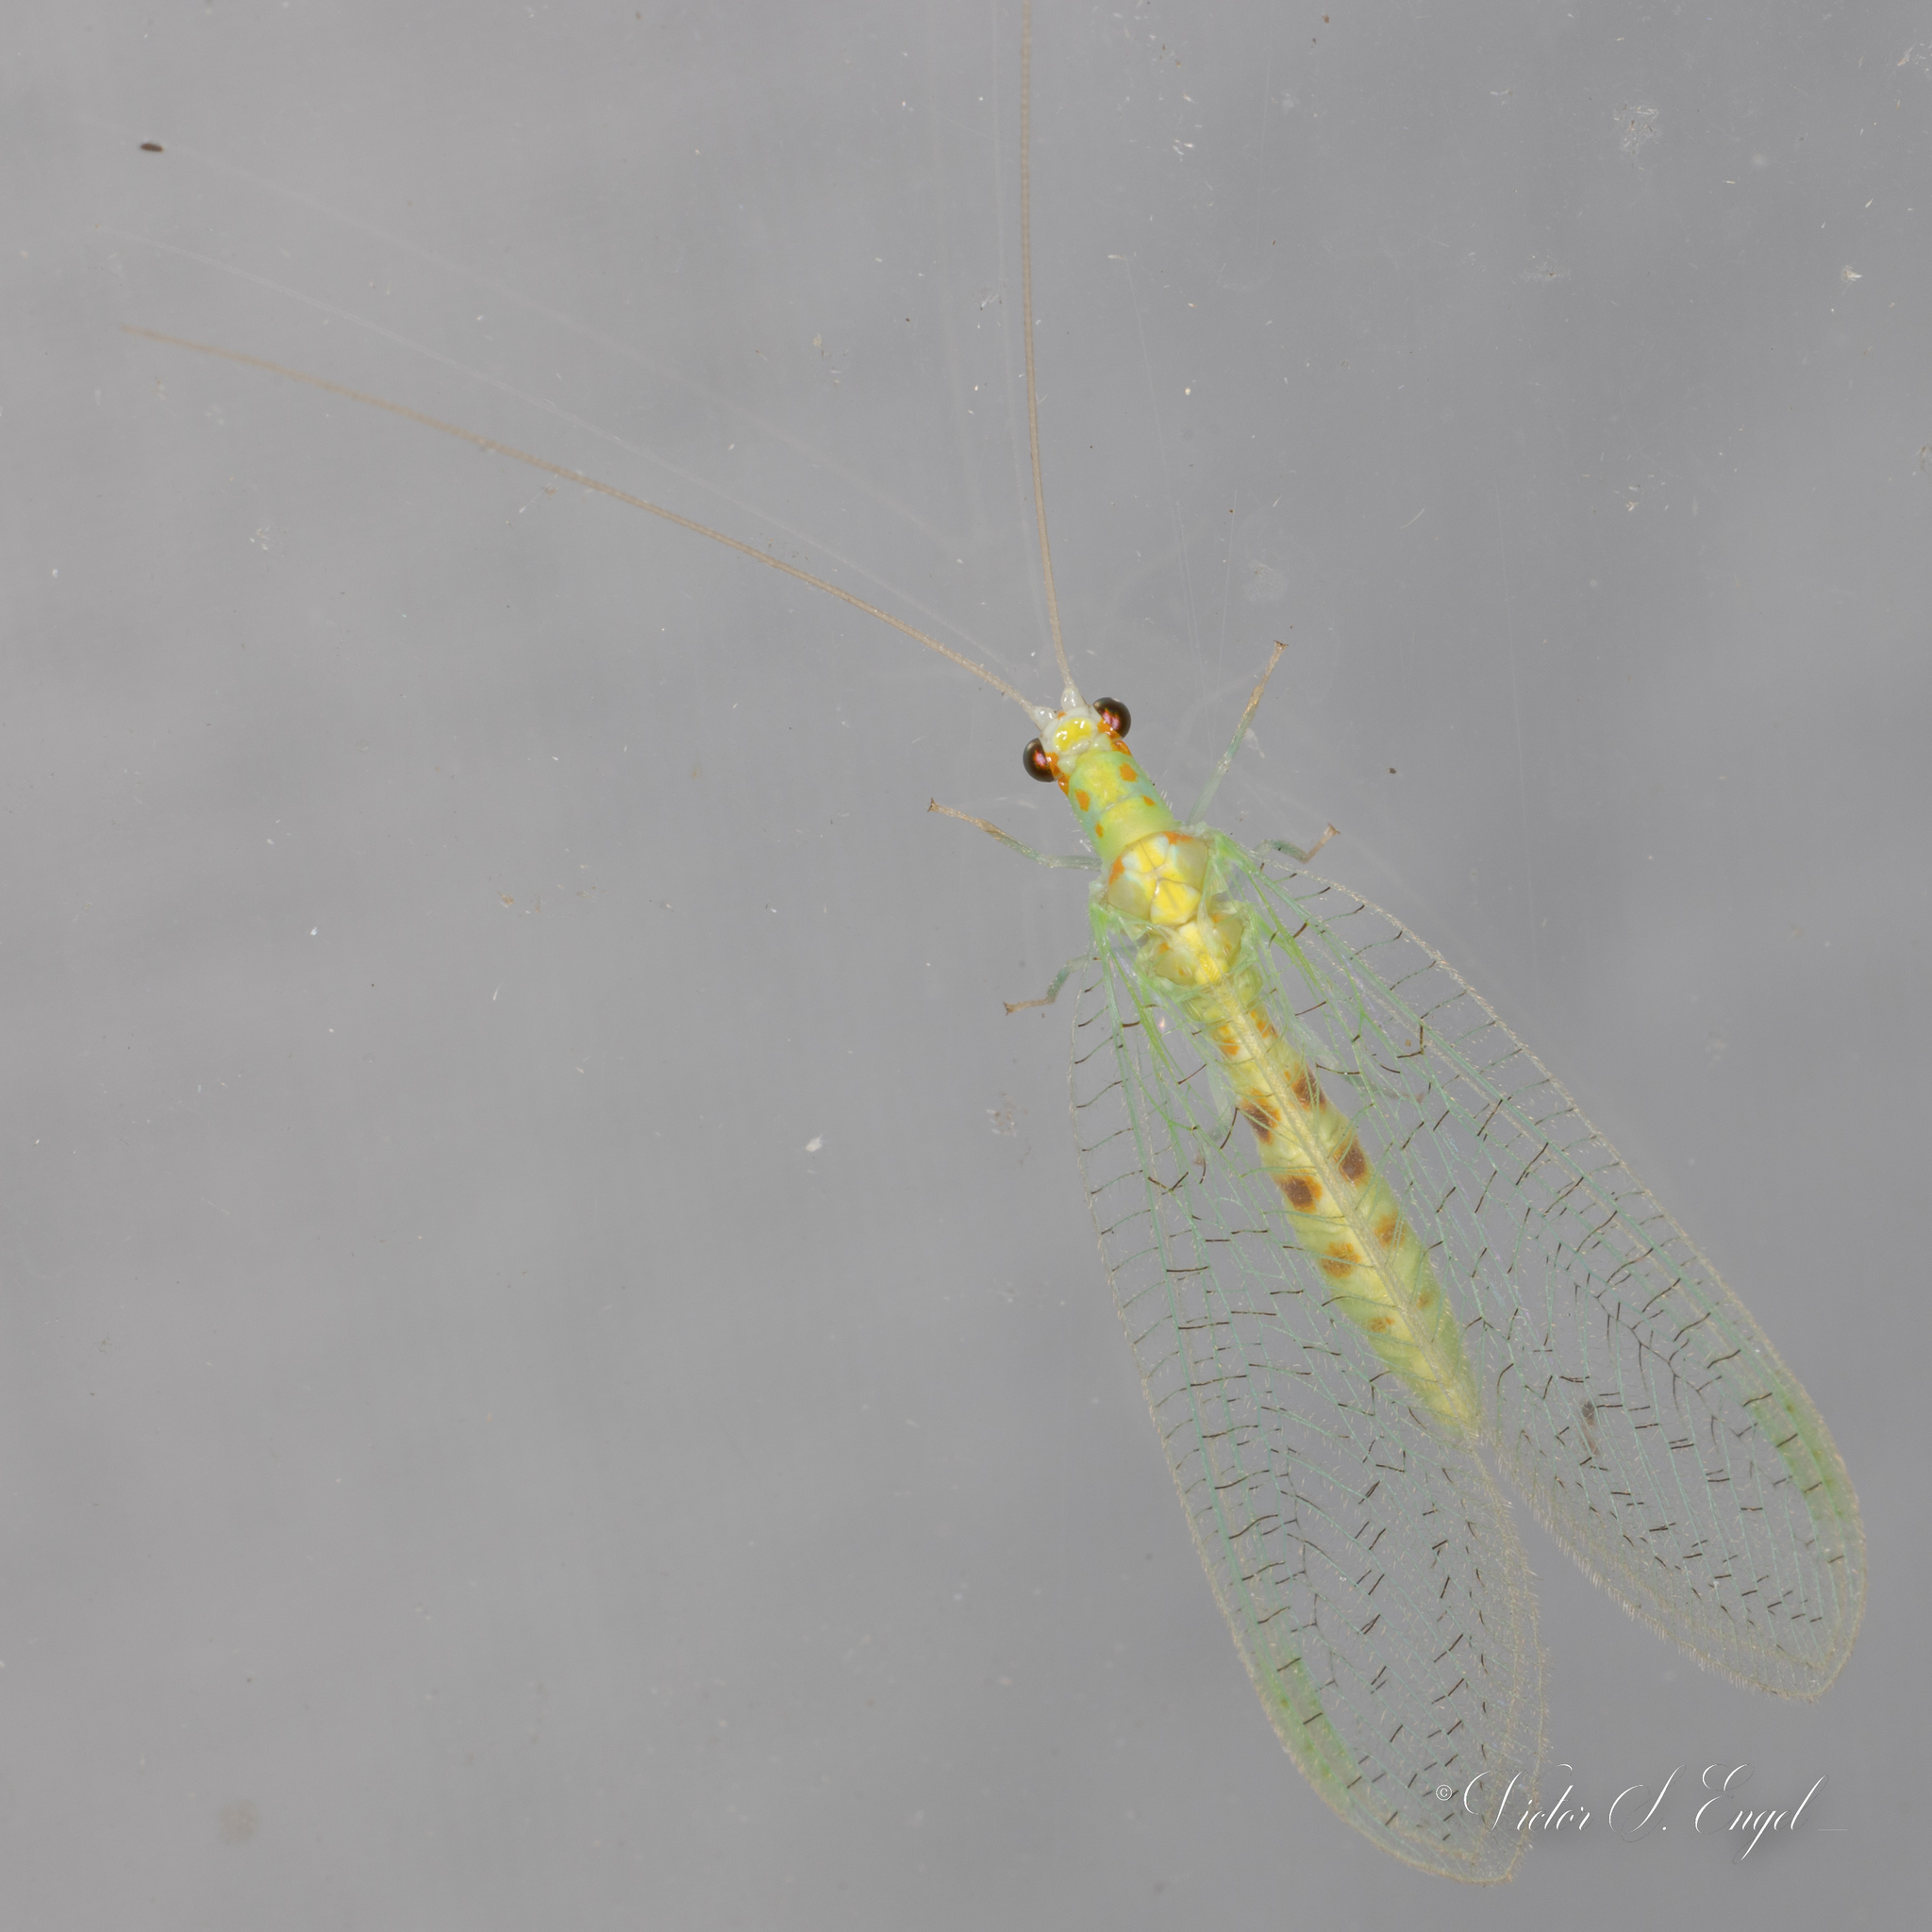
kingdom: Animalia
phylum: Arthropoda
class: Insecta
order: Neuroptera
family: Chrysopidae
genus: Chrysopa
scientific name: Chrysopa quadripunctata
